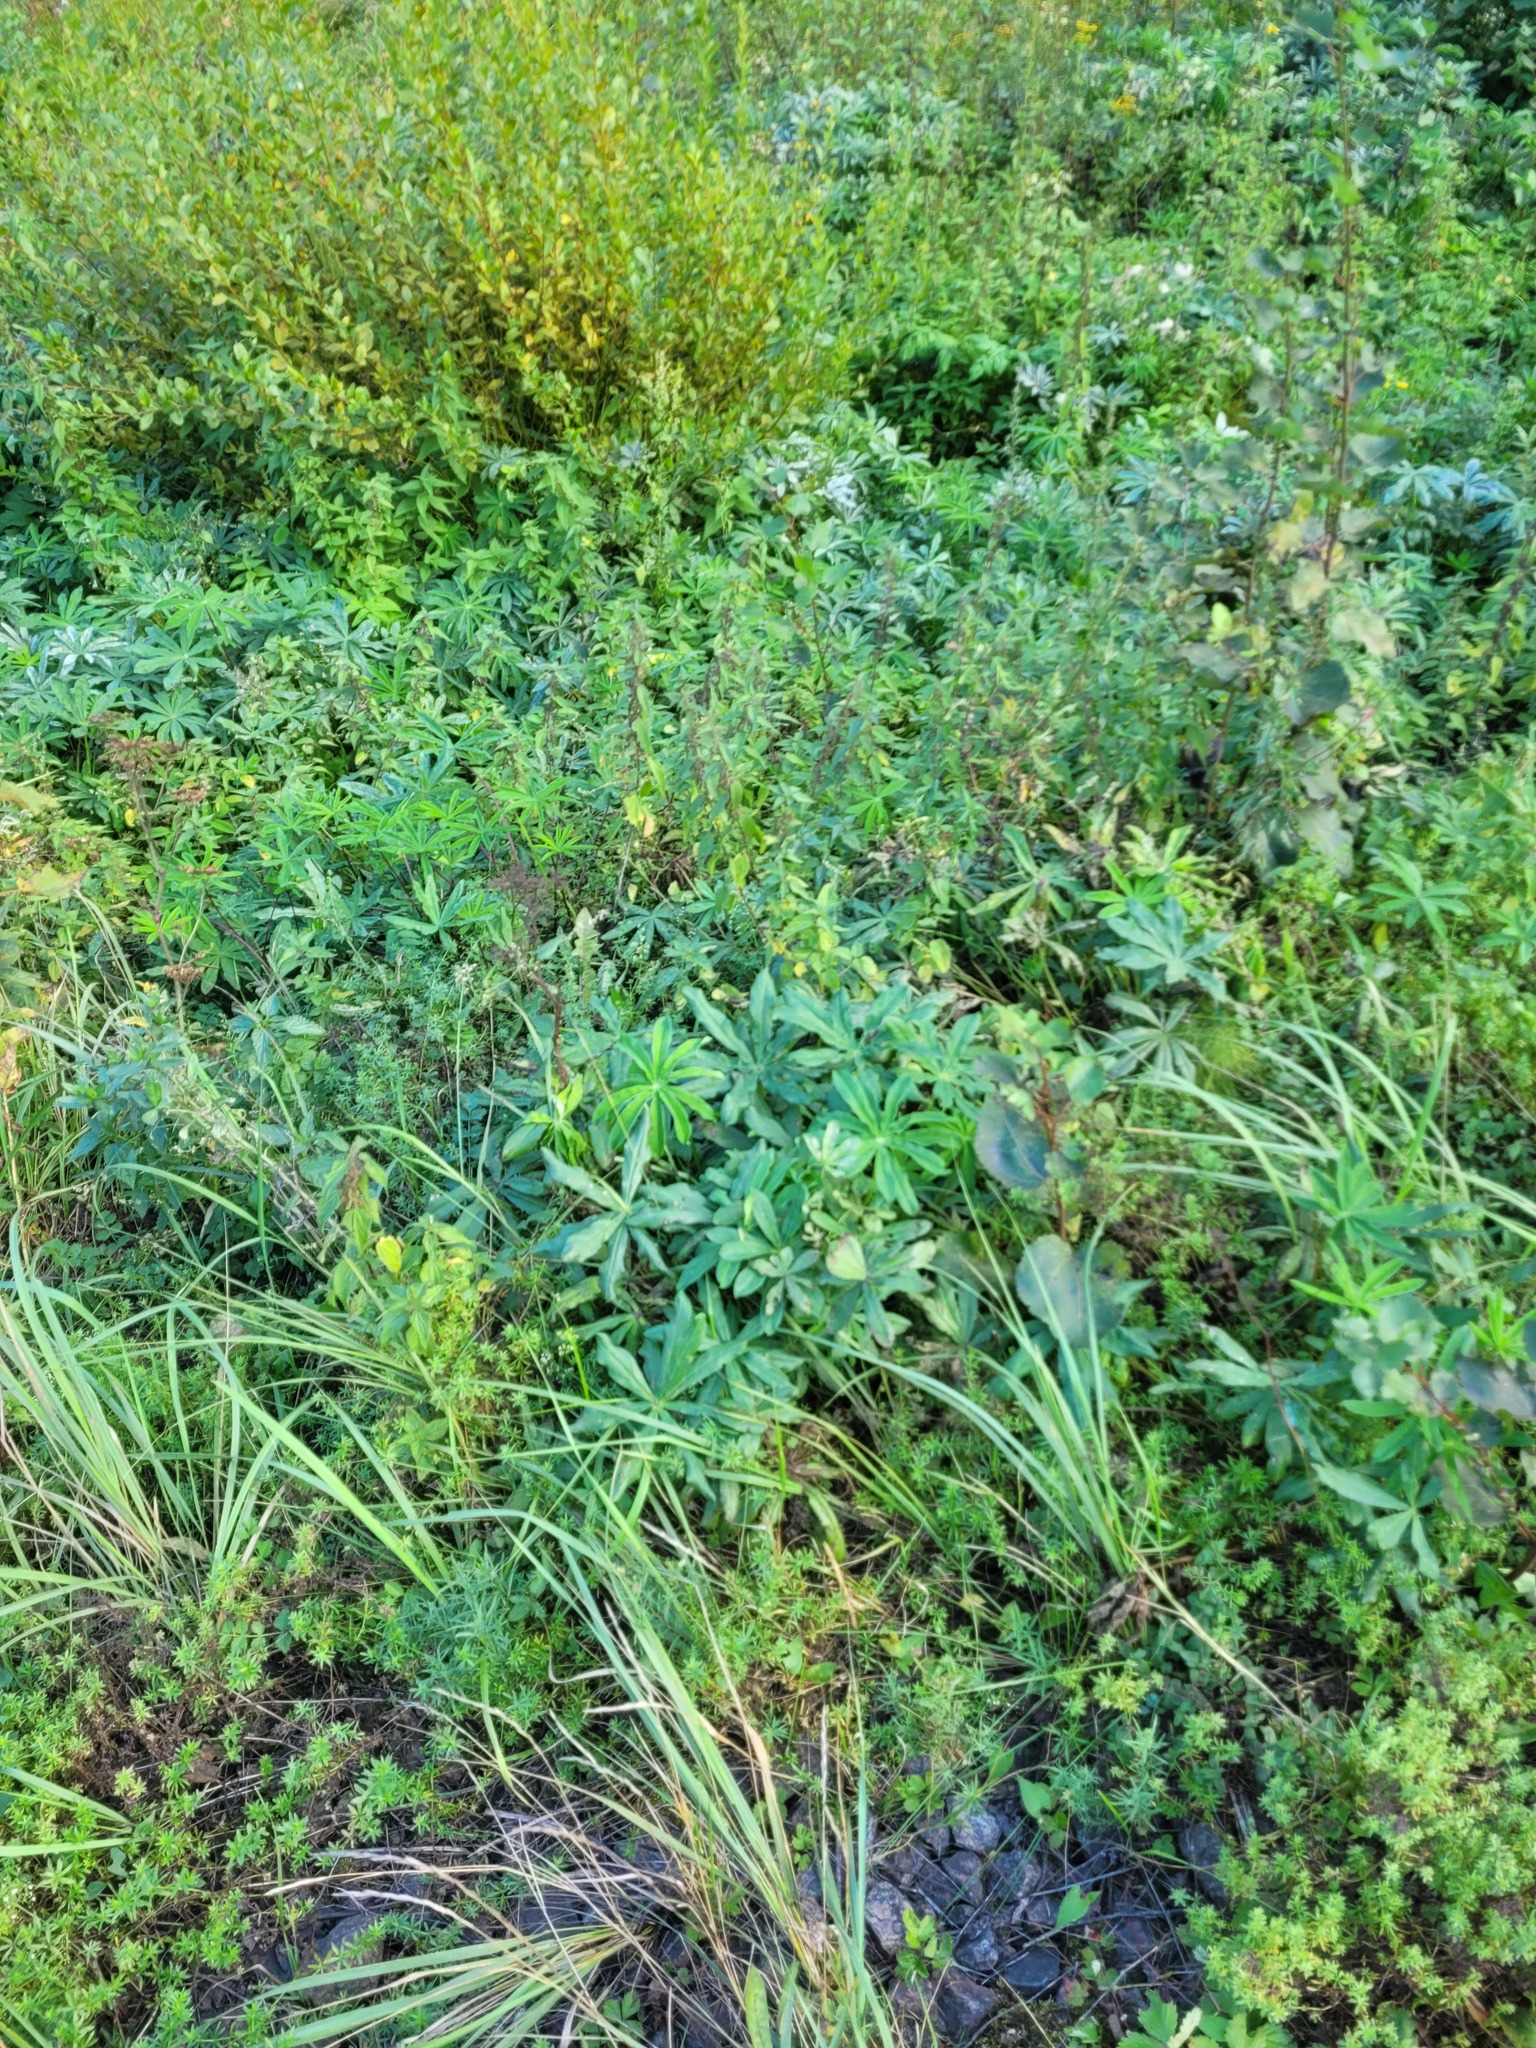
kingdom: Plantae
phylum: Tracheophyta
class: Magnoliopsida
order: Fabales
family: Fabaceae
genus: Lupinus
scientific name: Lupinus polyphyllus
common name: Garden lupin
